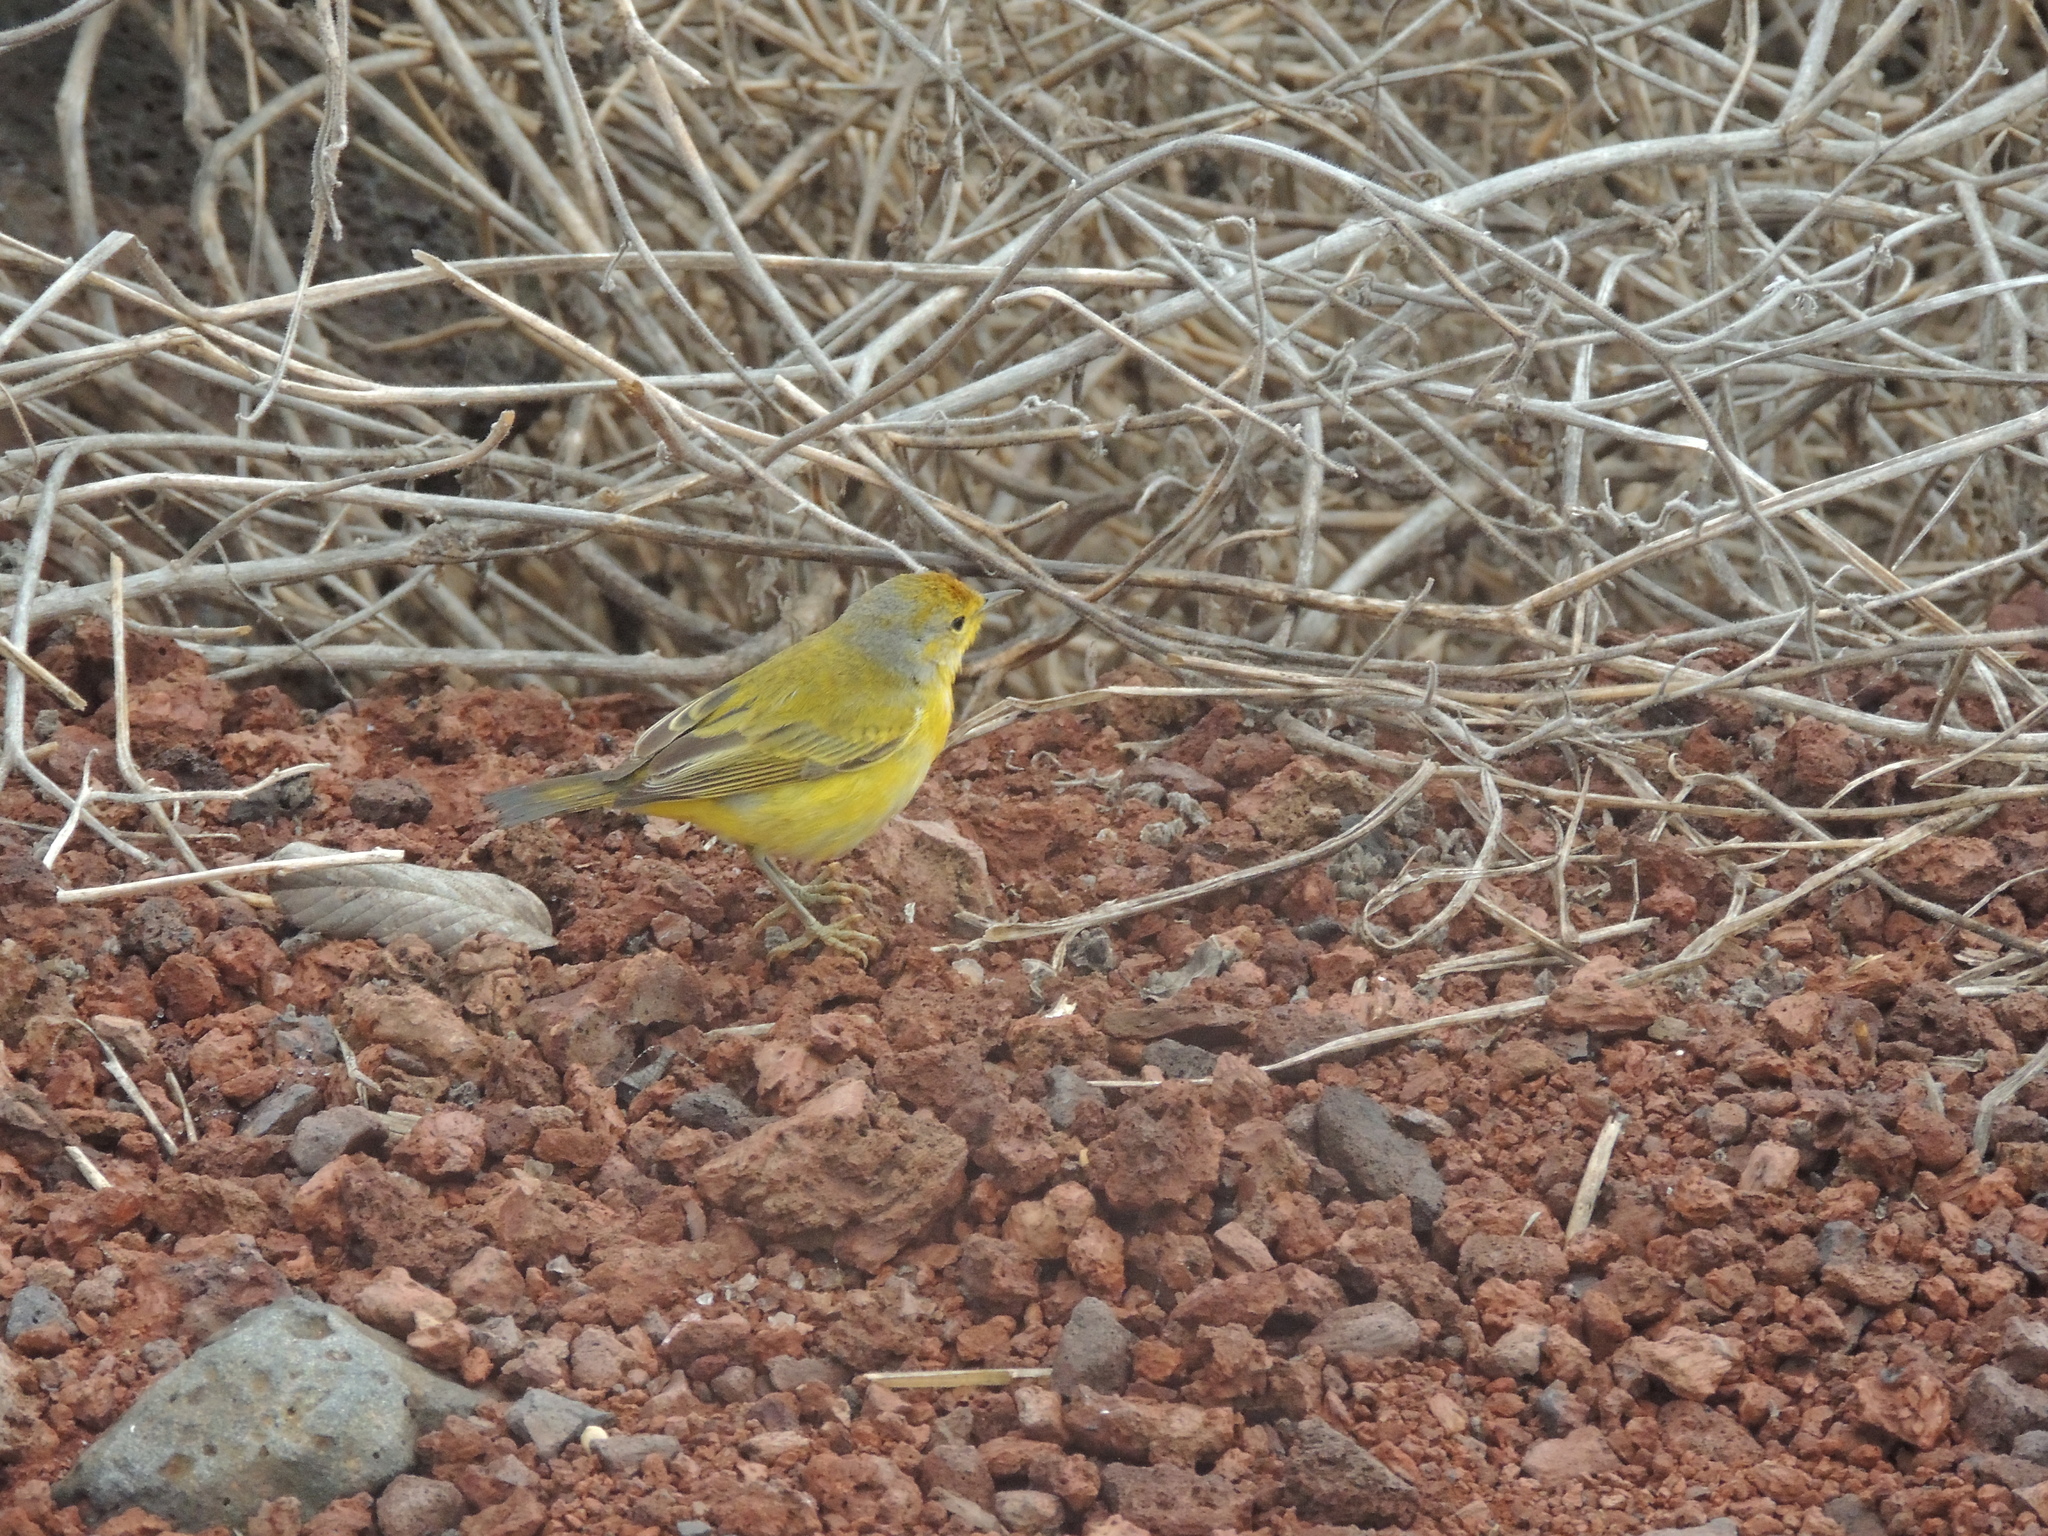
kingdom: Animalia
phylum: Chordata
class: Aves
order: Passeriformes
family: Parulidae
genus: Setophaga
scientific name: Setophaga petechia
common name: Yellow warbler
